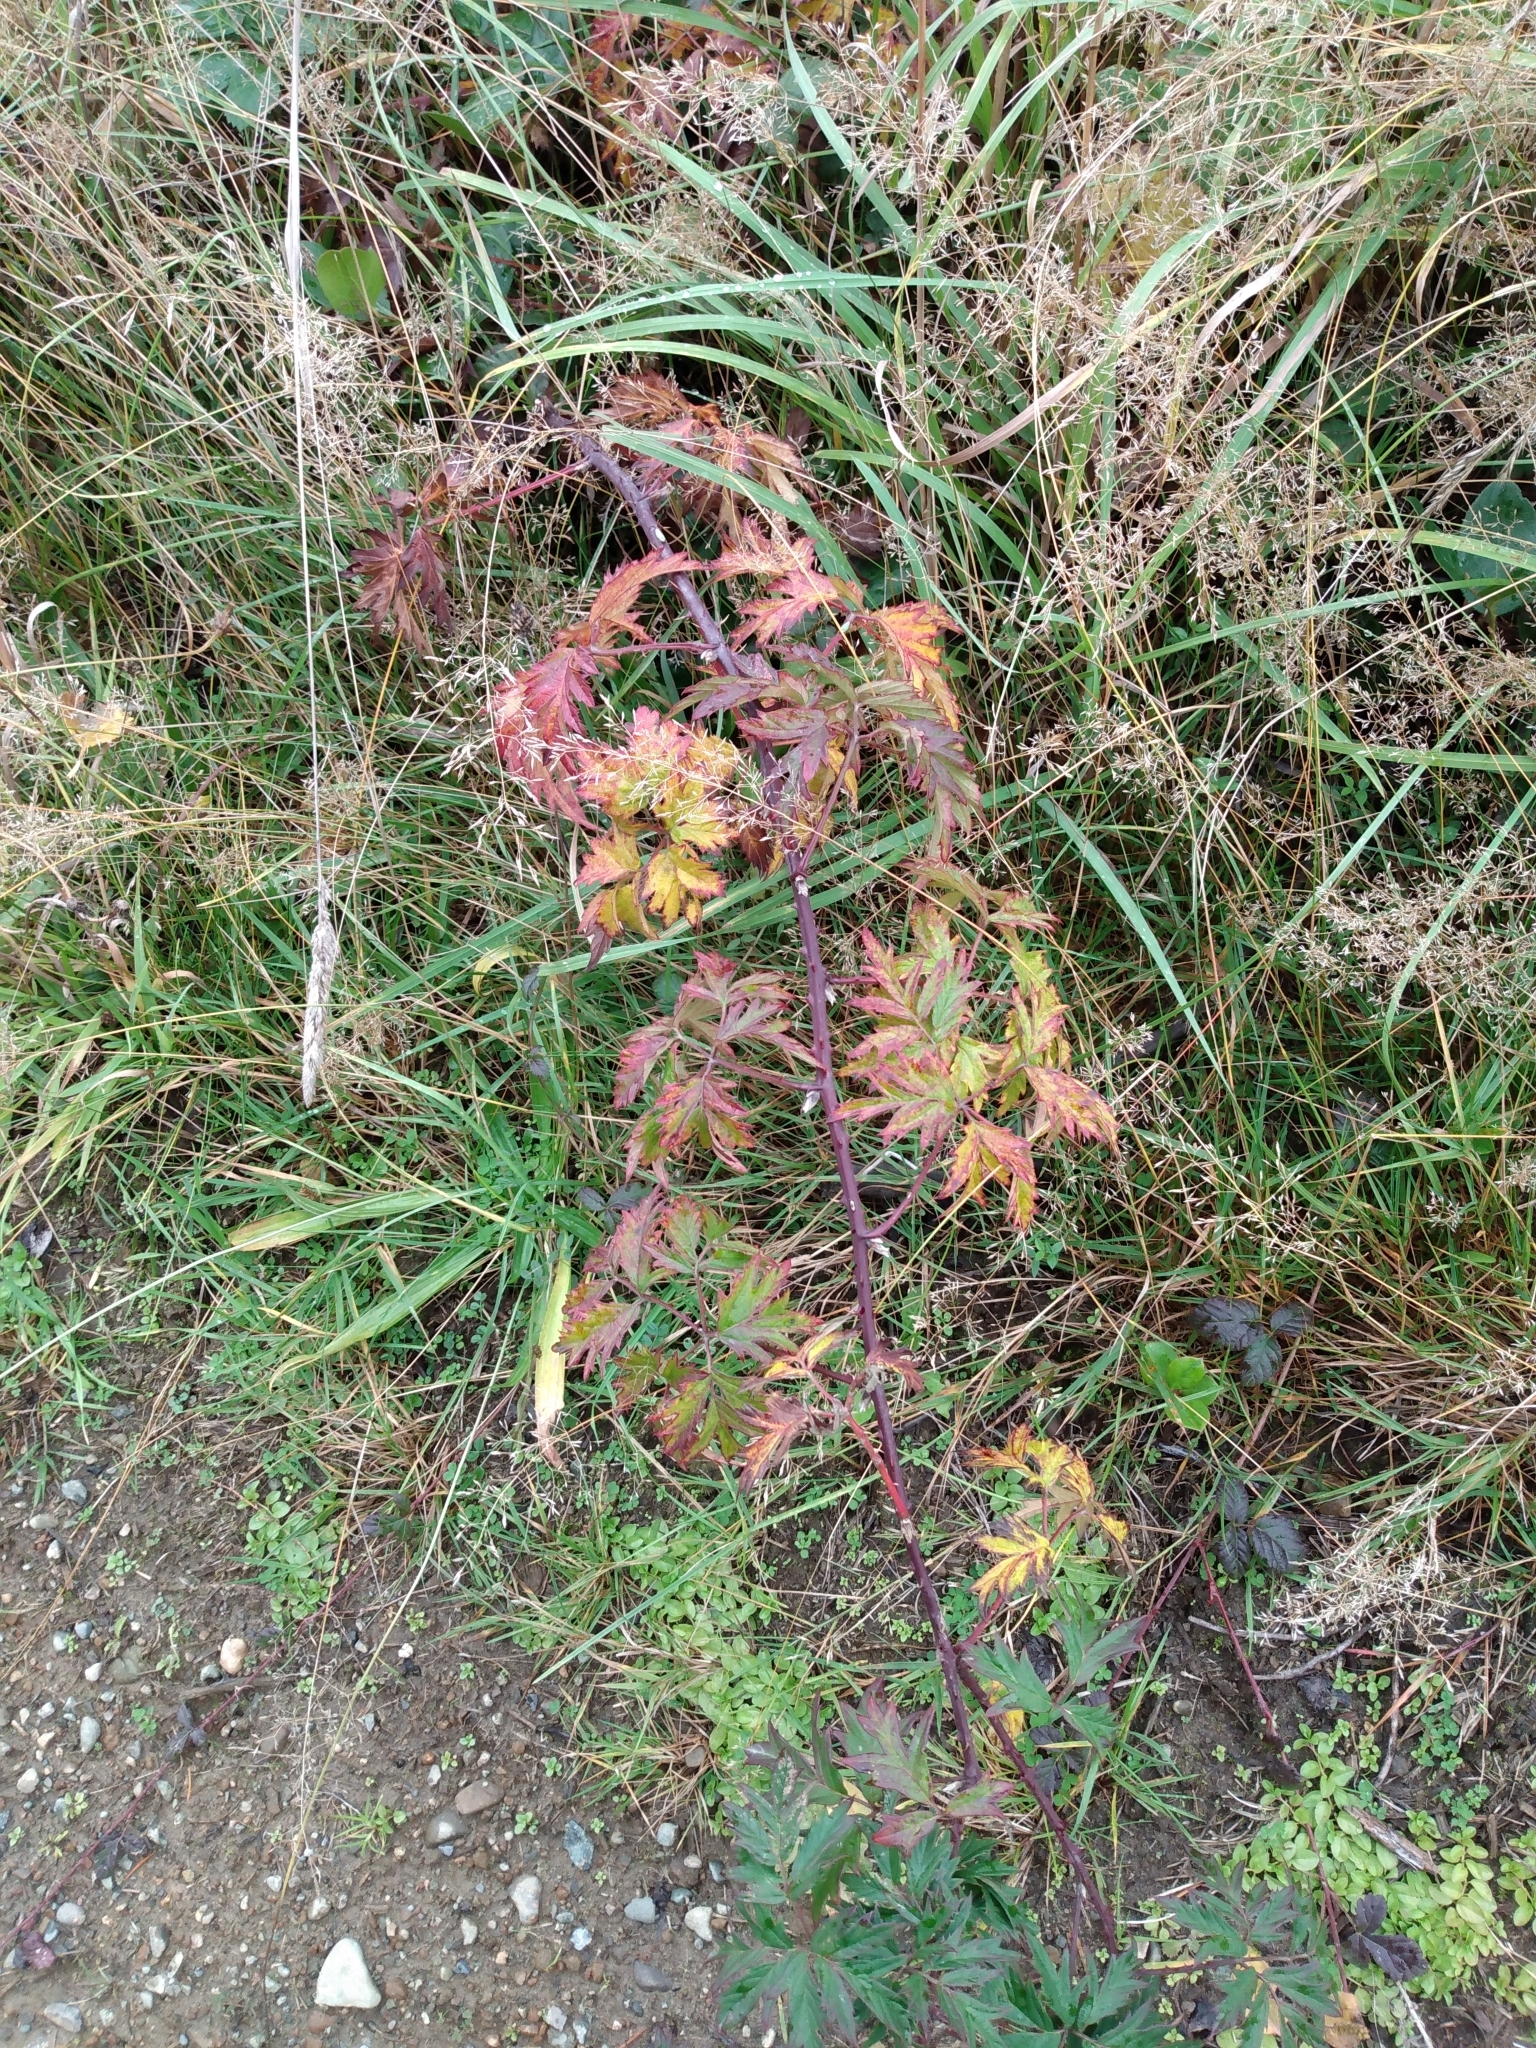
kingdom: Plantae
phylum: Tracheophyta
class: Magnoliopsida
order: Rosales
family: Rosaceae
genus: Rubus
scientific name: Rubus laciniatus
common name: Evergreen blackberry
